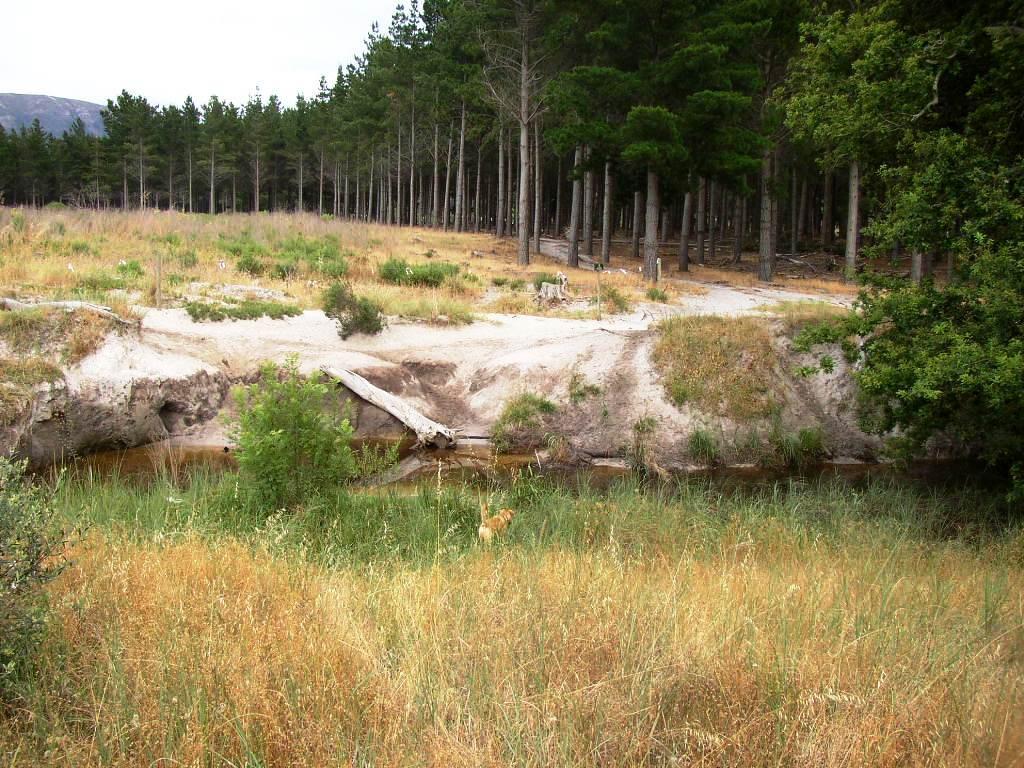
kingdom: Plantae
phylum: Tracheophyta
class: Liliopsida
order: Poales
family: Poaceae
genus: Avena
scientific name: Avena fatua
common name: Wild oat
